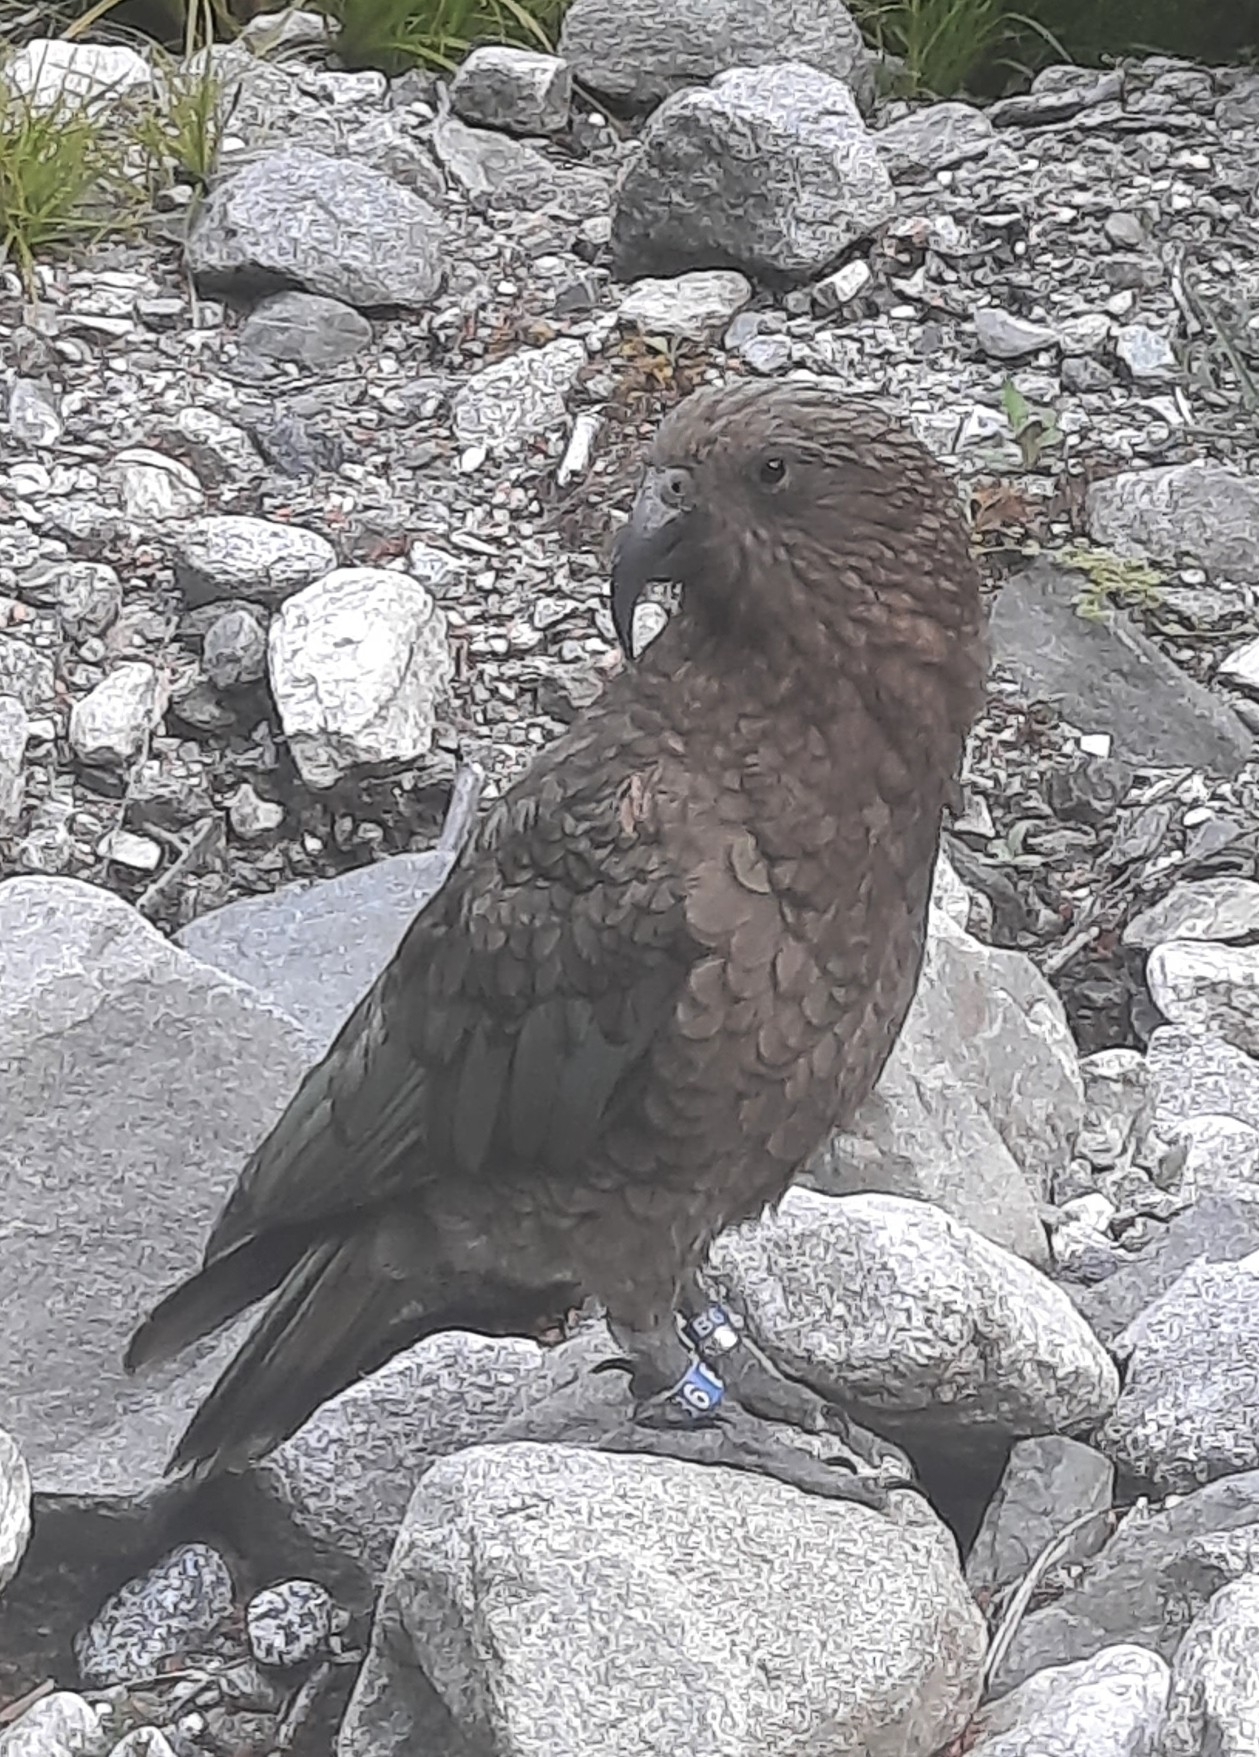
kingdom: Animalia
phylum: Chordata
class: Aves
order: Psittaciformes
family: Psittacidae
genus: Nestor
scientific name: Nestor notabilis
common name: Kea
